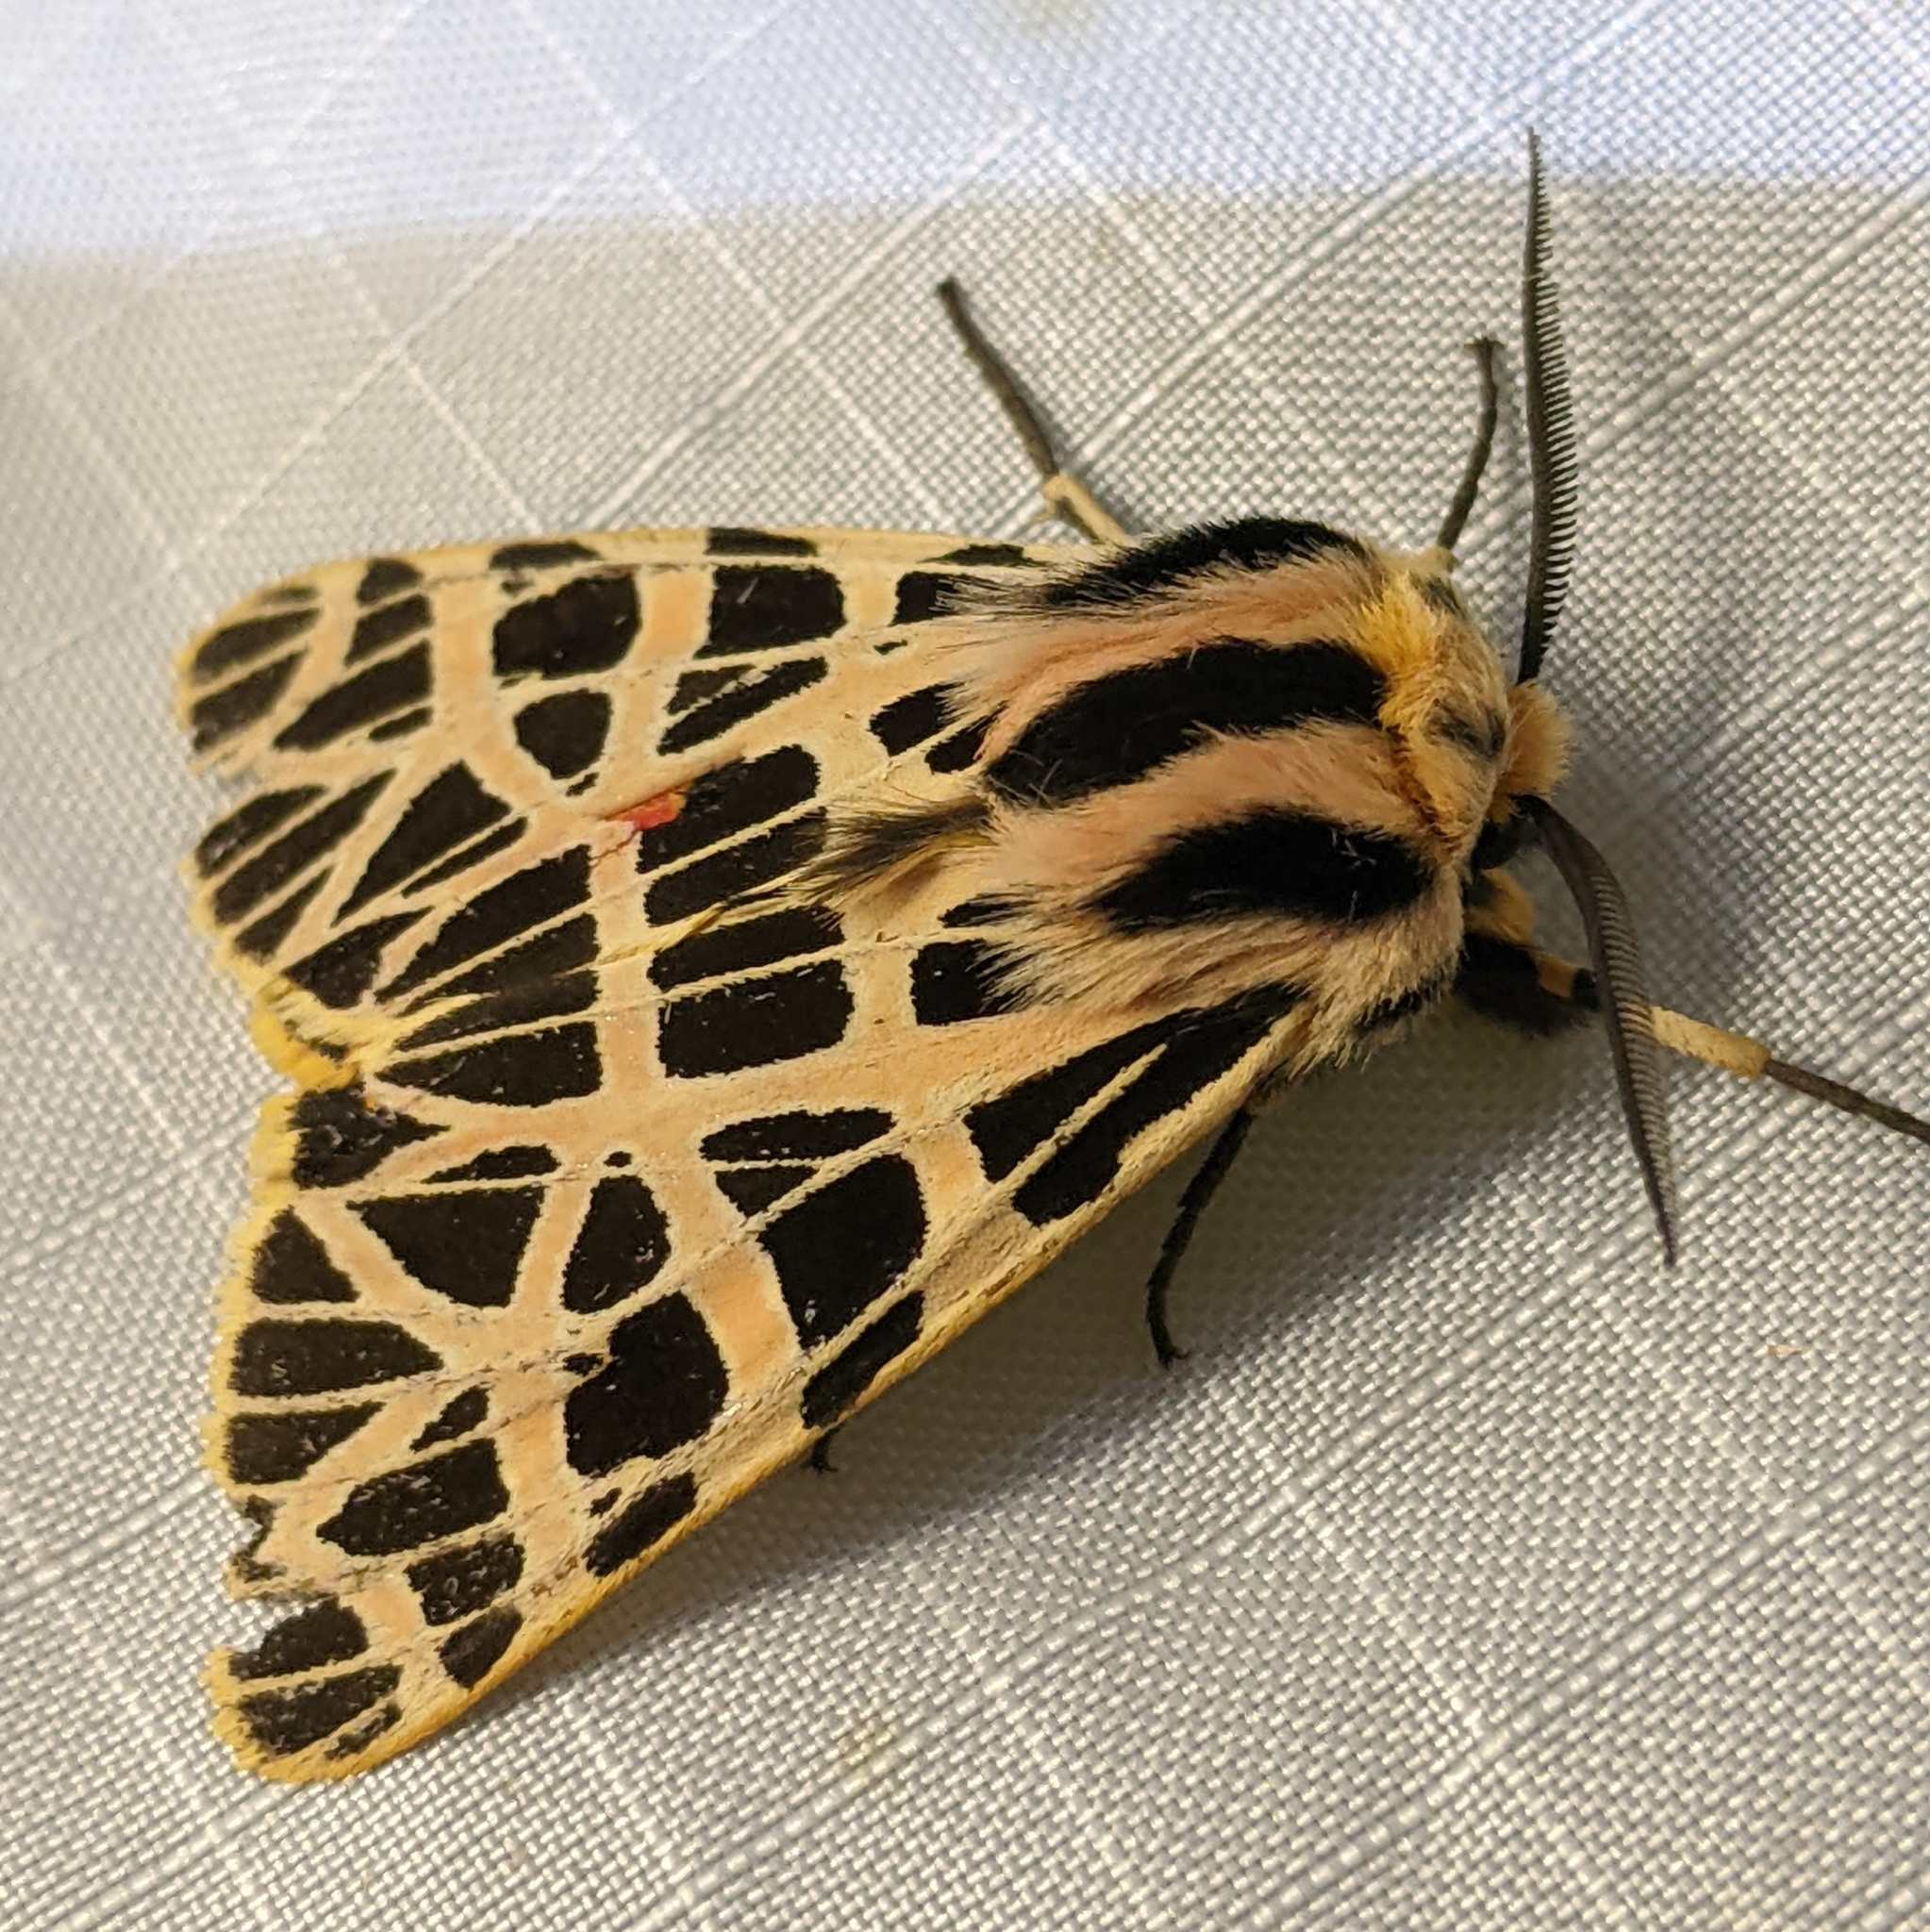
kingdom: Animalia
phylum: Arthropoda
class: Insecta
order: Lepidoptera
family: Erebidae
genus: Apantesis
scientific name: Apantesis
